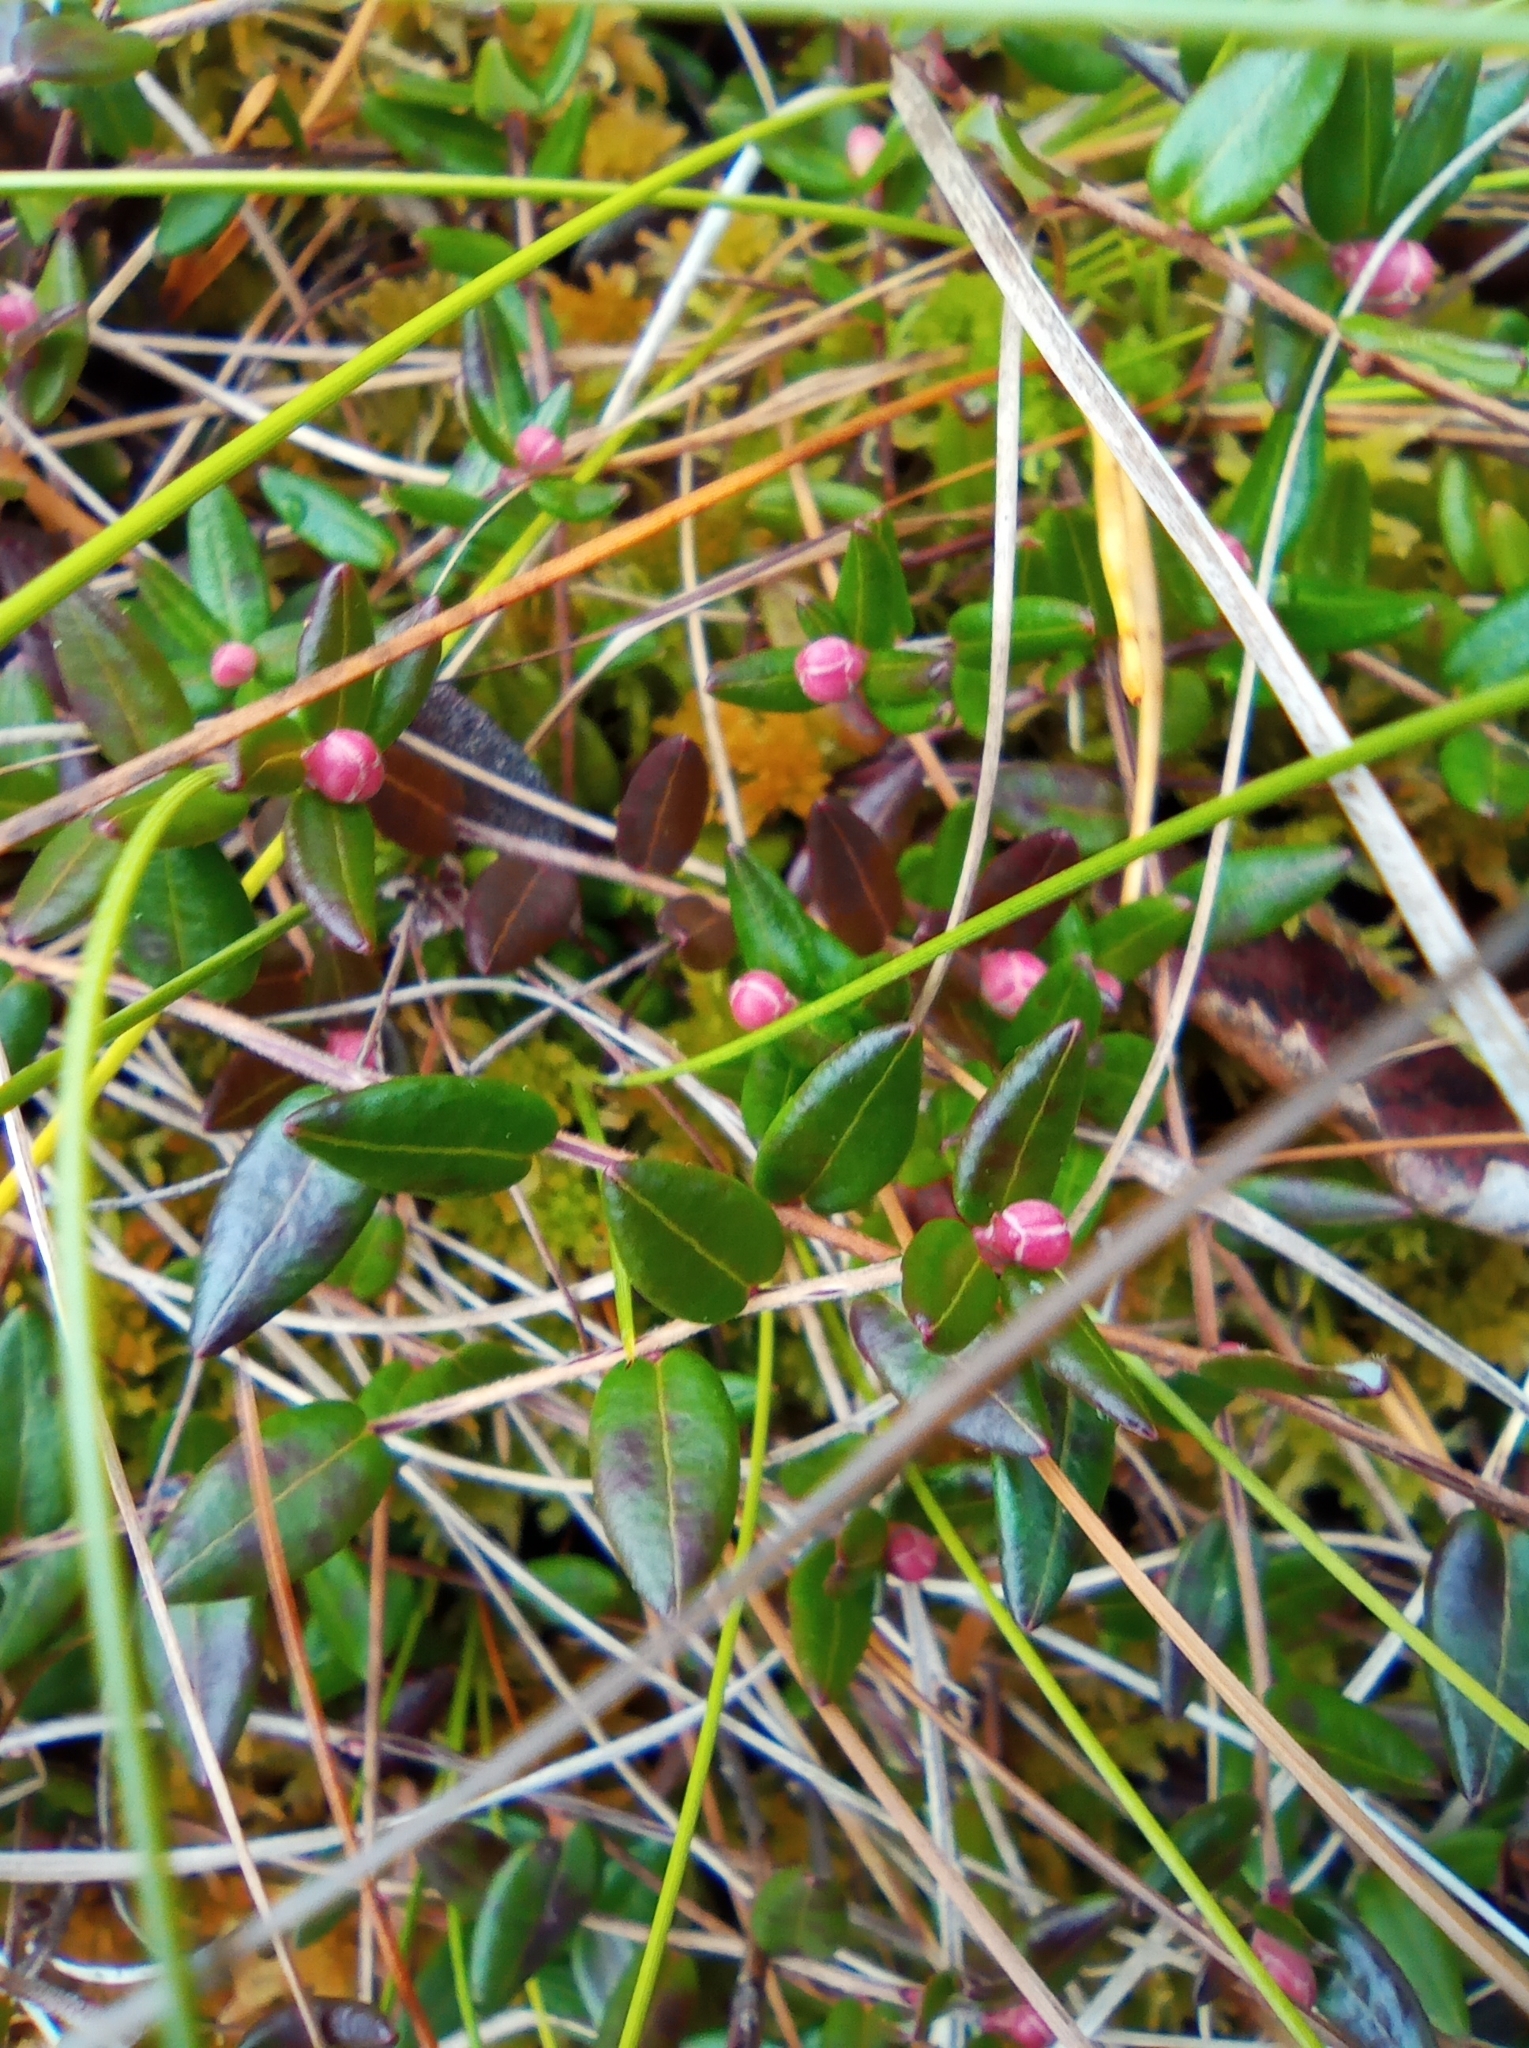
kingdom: Plantae
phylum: Tracheophyta
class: Magnoliopsida
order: Ericales
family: Ericaceae
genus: Vaccinium
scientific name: Vaccinium oxycoccos
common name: Cranberry
